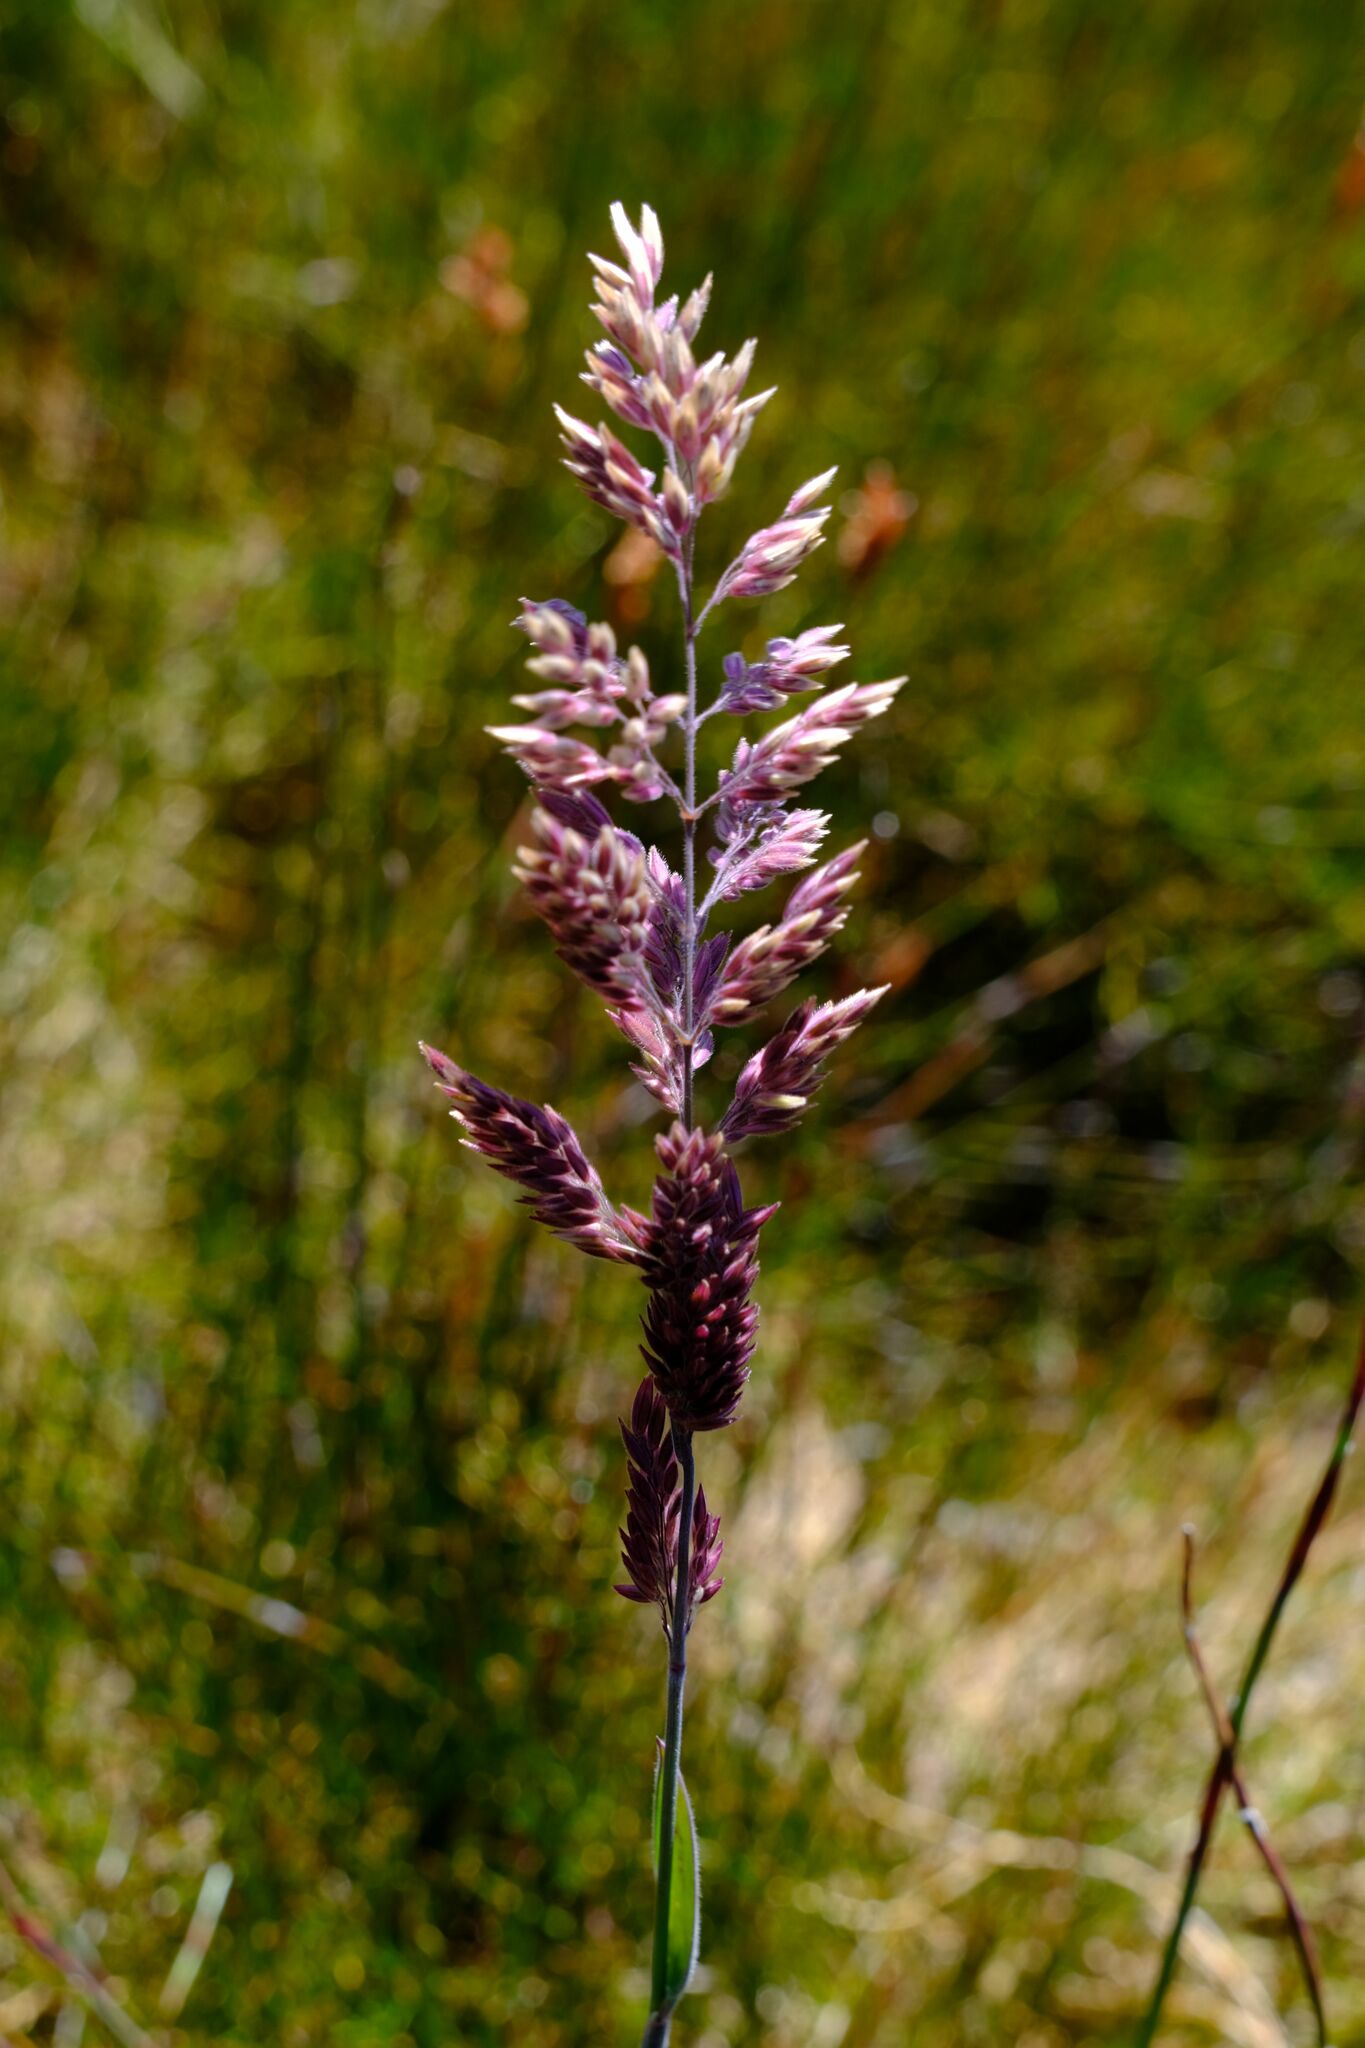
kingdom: Plantae
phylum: Tracheophyta
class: Liliopsida
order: Poales
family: Poaceae
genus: Holcus
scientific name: Holcus lanatus
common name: Yorkshire-fog
